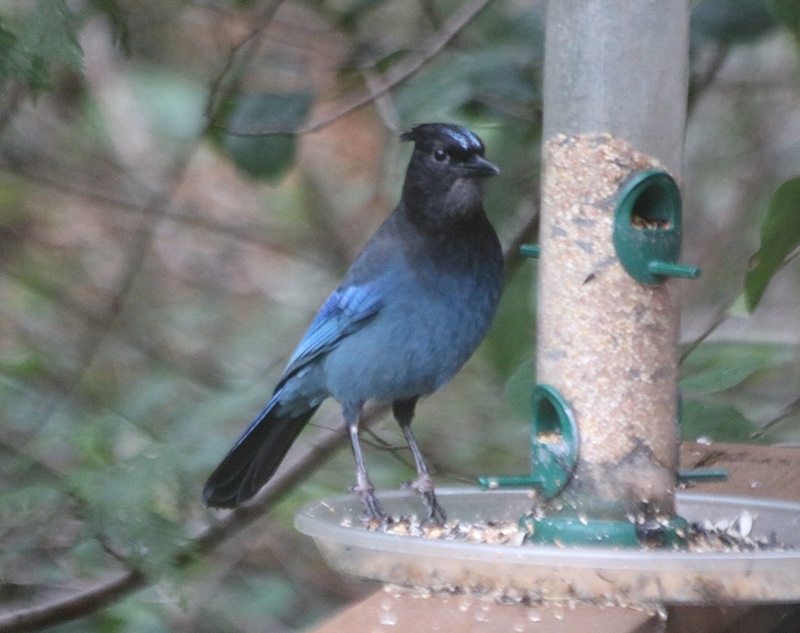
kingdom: Animalia
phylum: Chordata
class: Aves
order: Passeriformes
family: Corvidae
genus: Cyanocitta
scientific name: Cyanocitta stelleri
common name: Steller's jay
